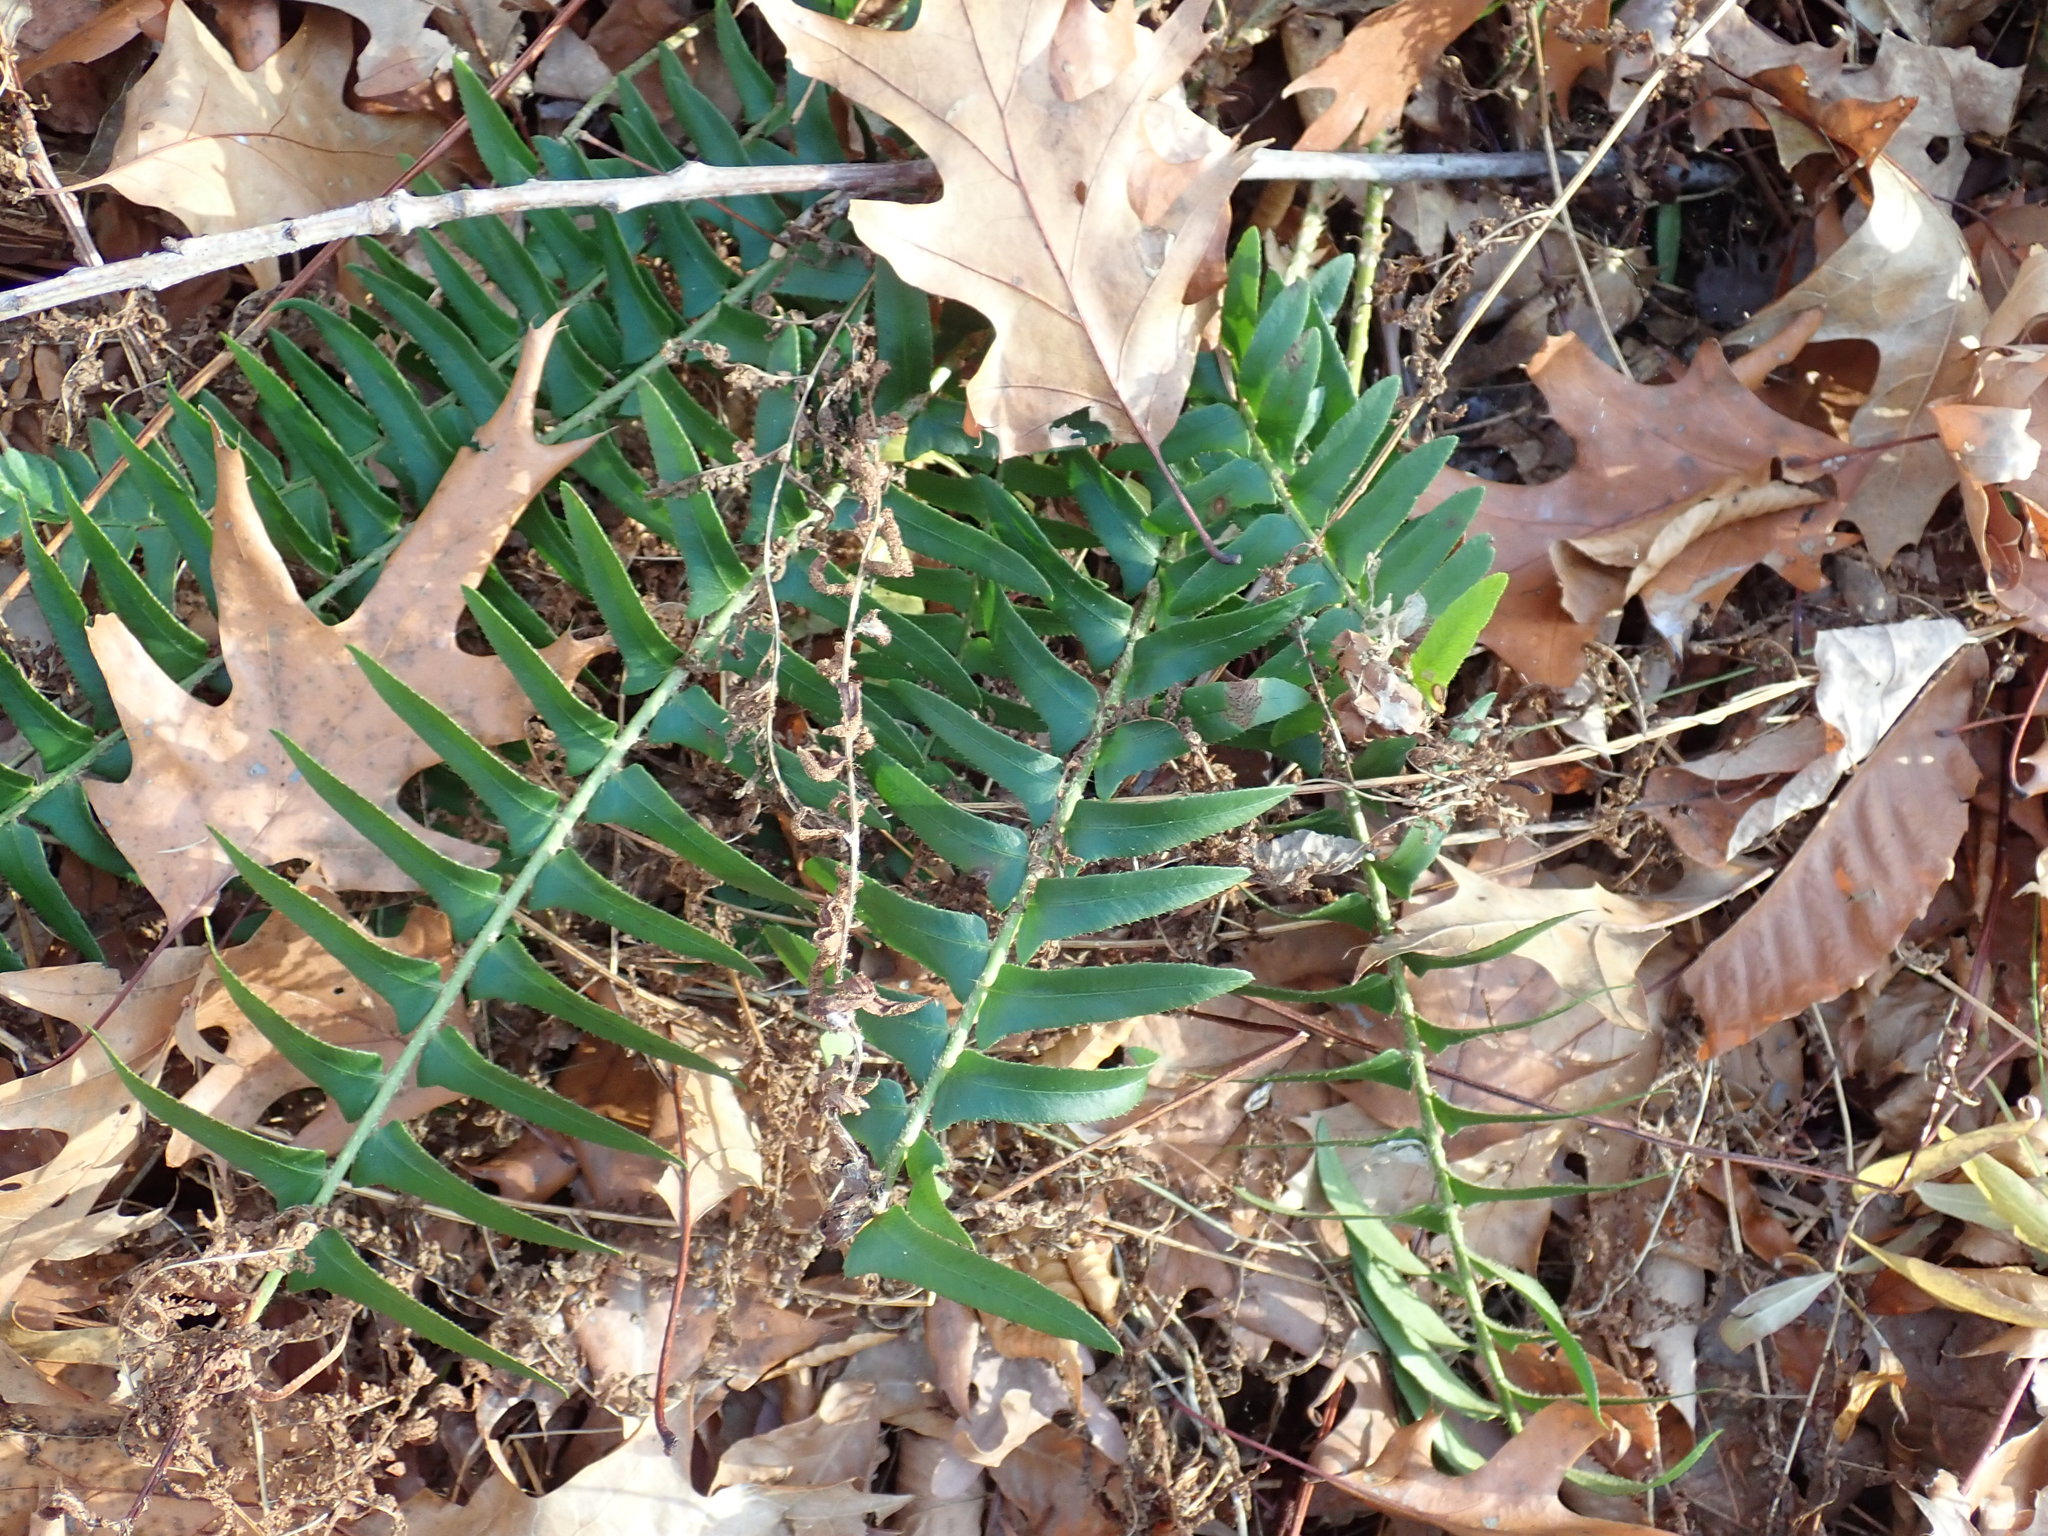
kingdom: Plantae
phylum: Tracheophyta
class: Polypodiopsida
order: Polypodiales
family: Dryopteridaceae
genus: Polystichum
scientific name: Polystichum acrostichoides
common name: Christmas fern
